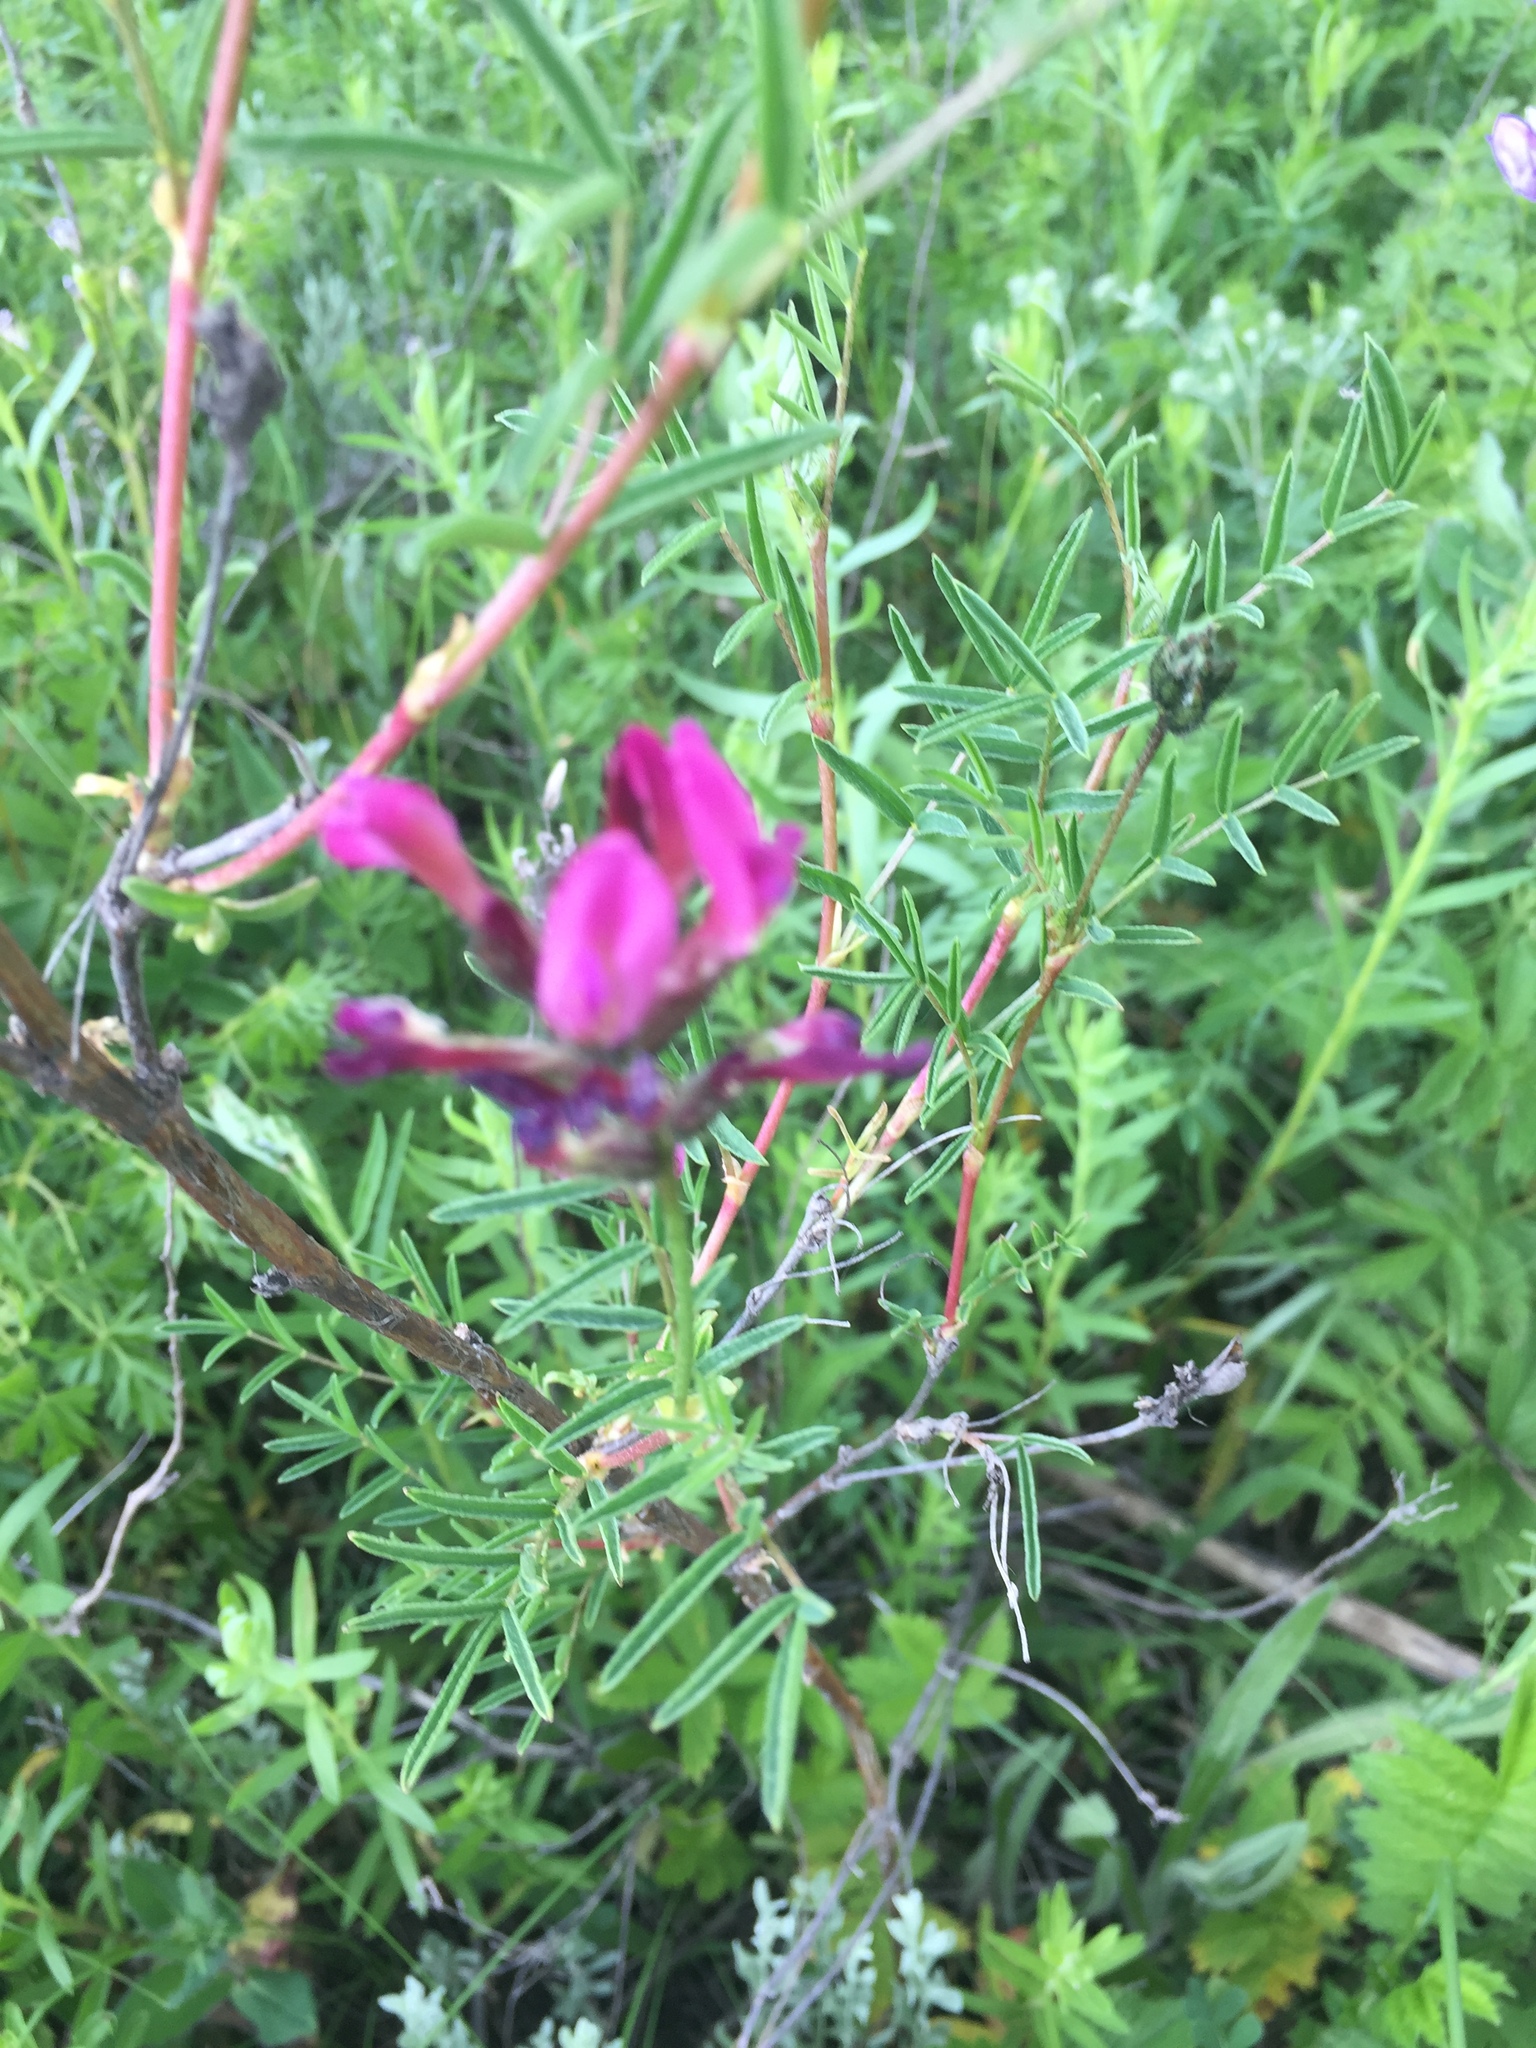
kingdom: Plantae
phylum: Tracheophyta
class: Magnoliopsida
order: Fabales
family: Fabaceae
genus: Astragalus
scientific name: Astragalus cornutus
